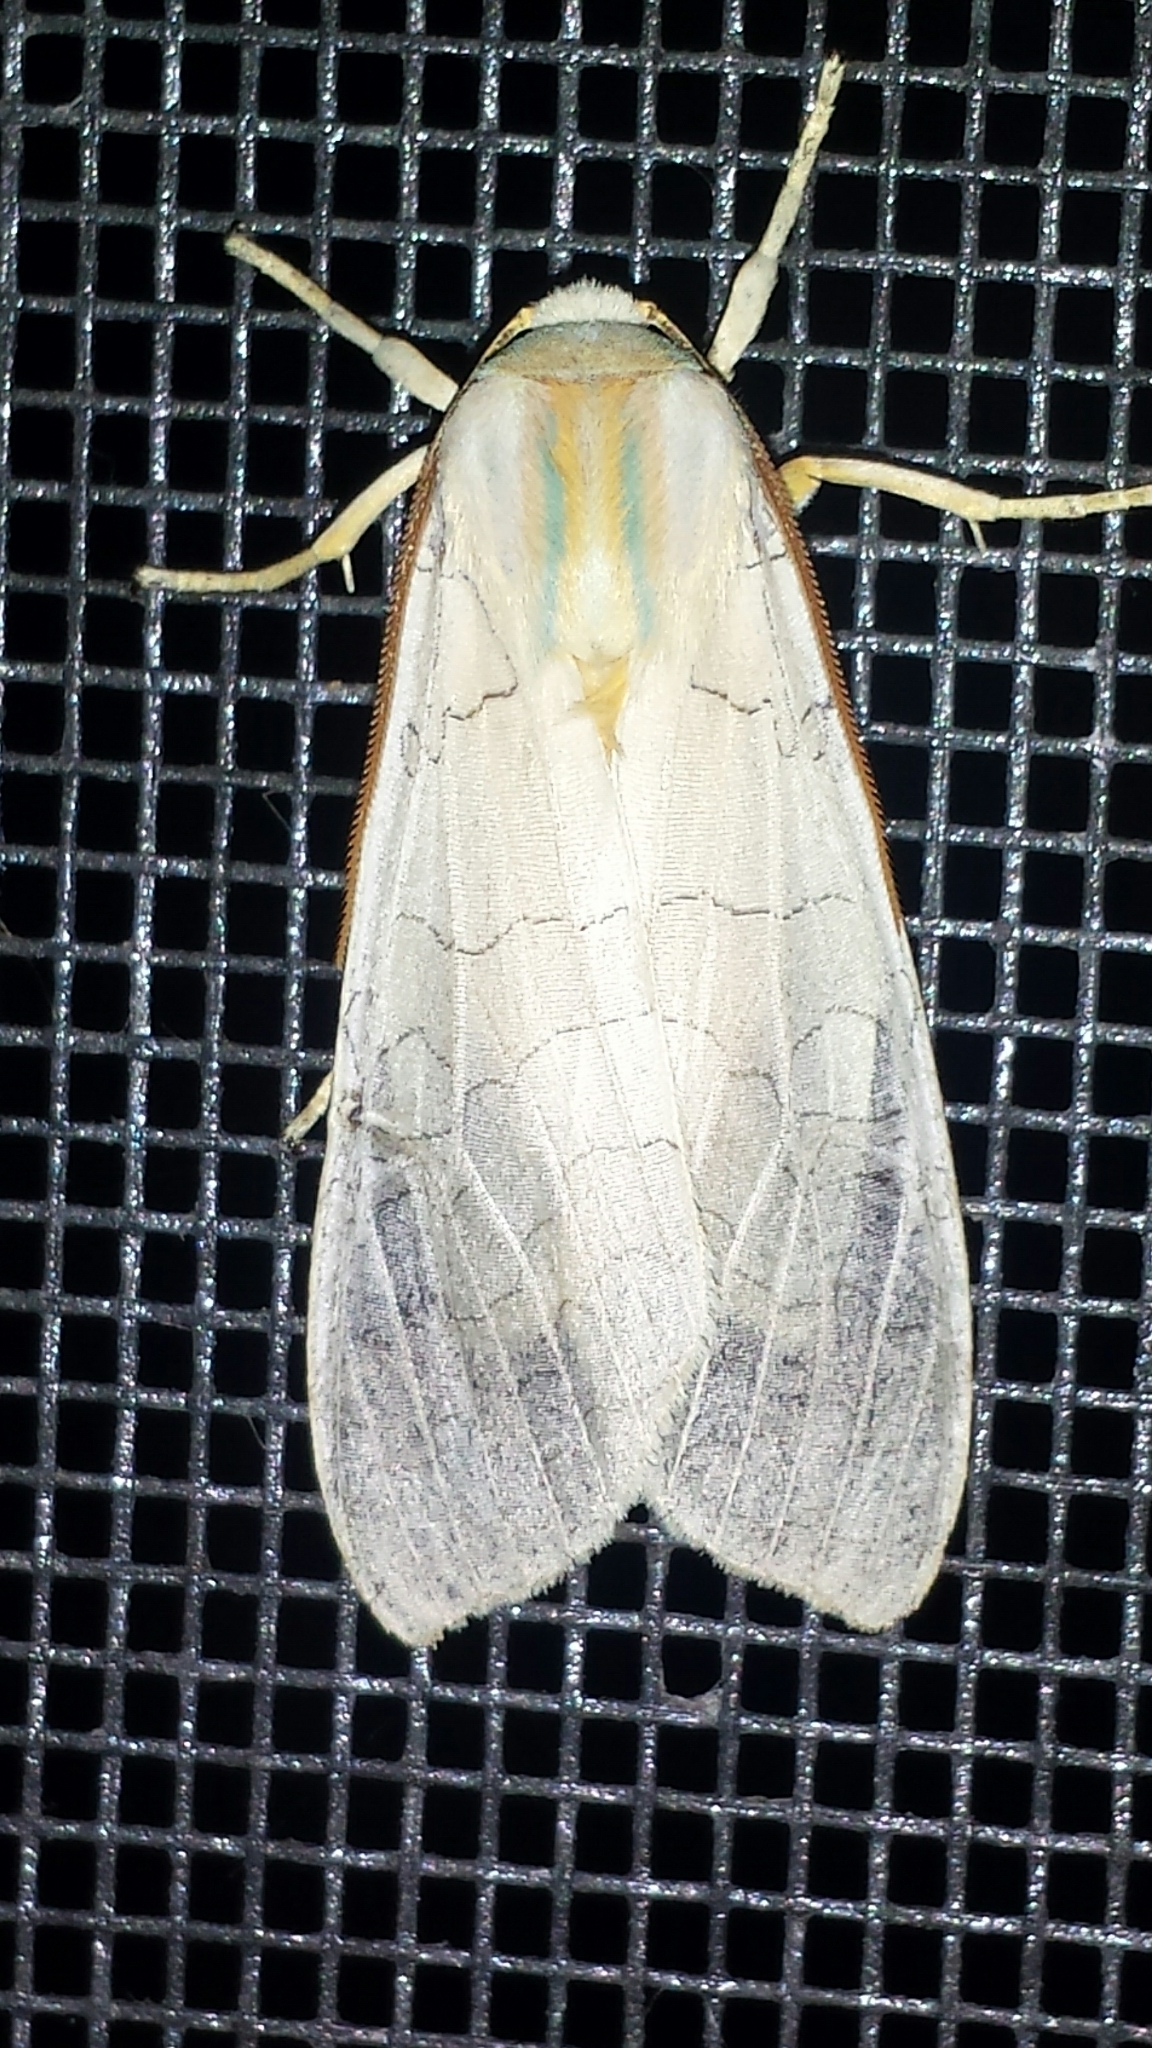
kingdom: Animalia
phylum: Arthropoda
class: Insecta
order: Lepidoptera
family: Erebidae
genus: Halysidota
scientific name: Halysidota
